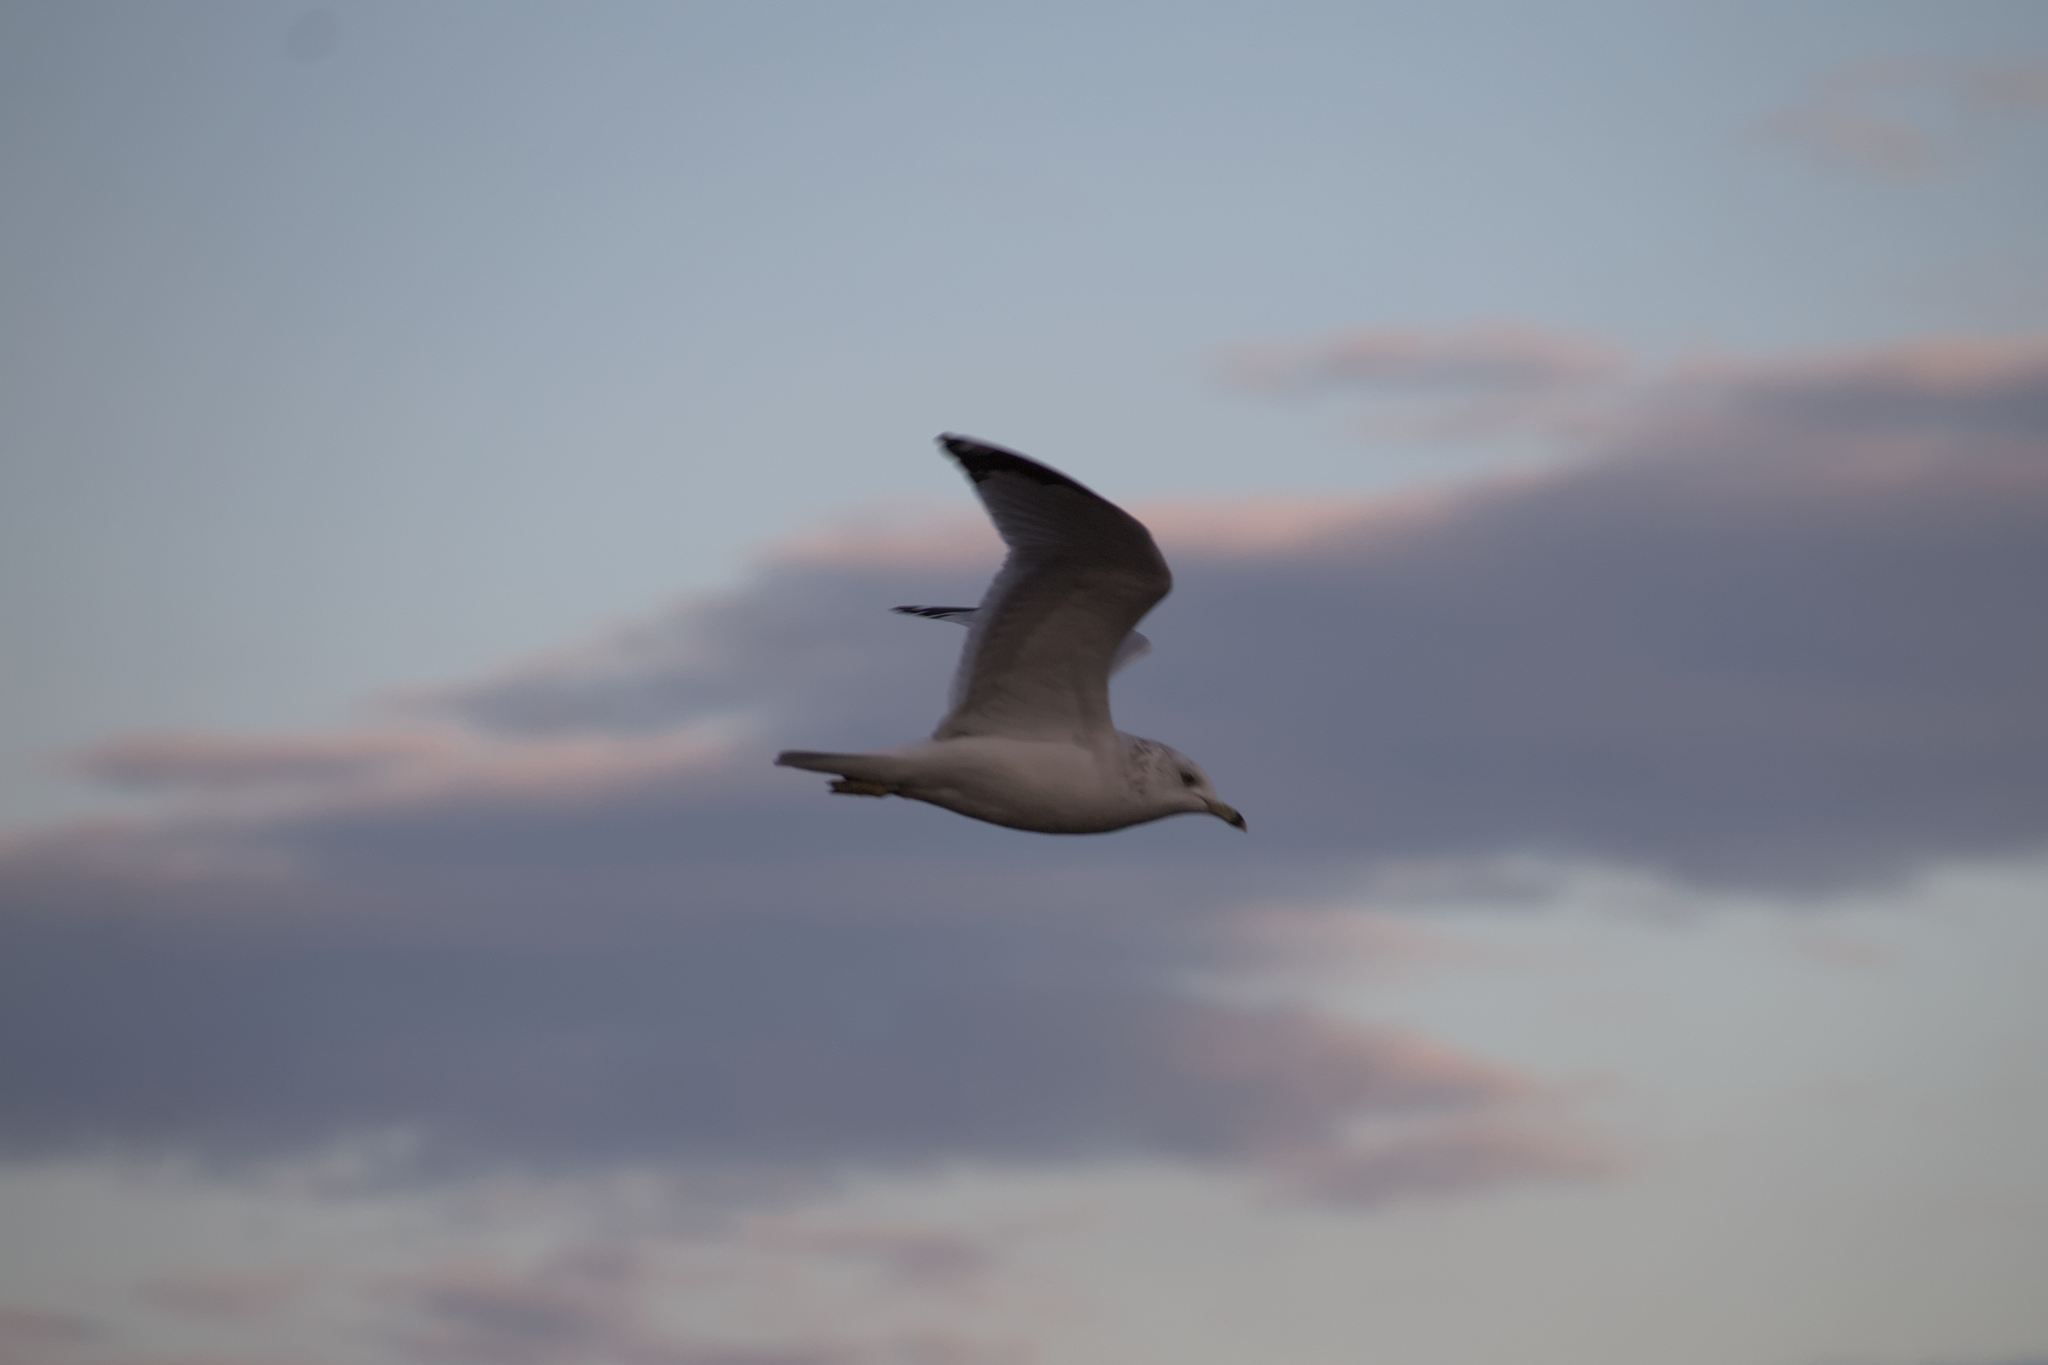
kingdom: Animalia
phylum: Chordata
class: Aves
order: Charadriiformes
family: Laridae
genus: Larus
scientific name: Larus delawarensis
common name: Ring-billed gull
